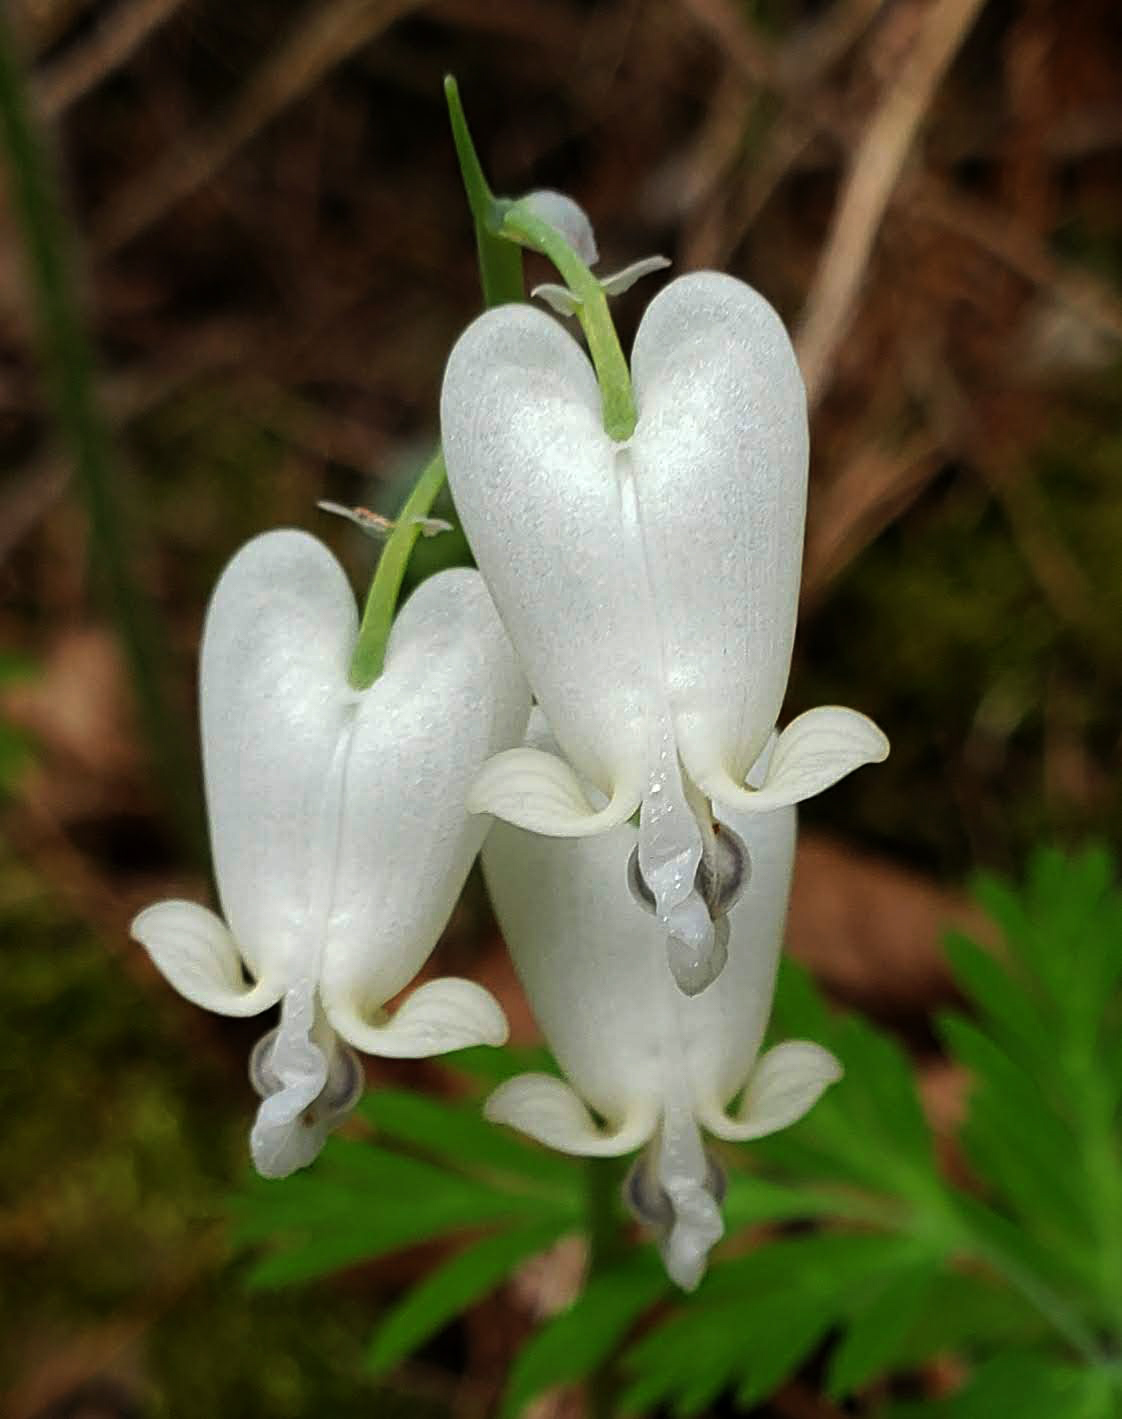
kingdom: Plantae
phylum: Tracheophyta
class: Magnoliopsida
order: Ranunculales
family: Papaveraceae
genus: Dicentra
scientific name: Dicentra canadensis
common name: Squirrel-corn
